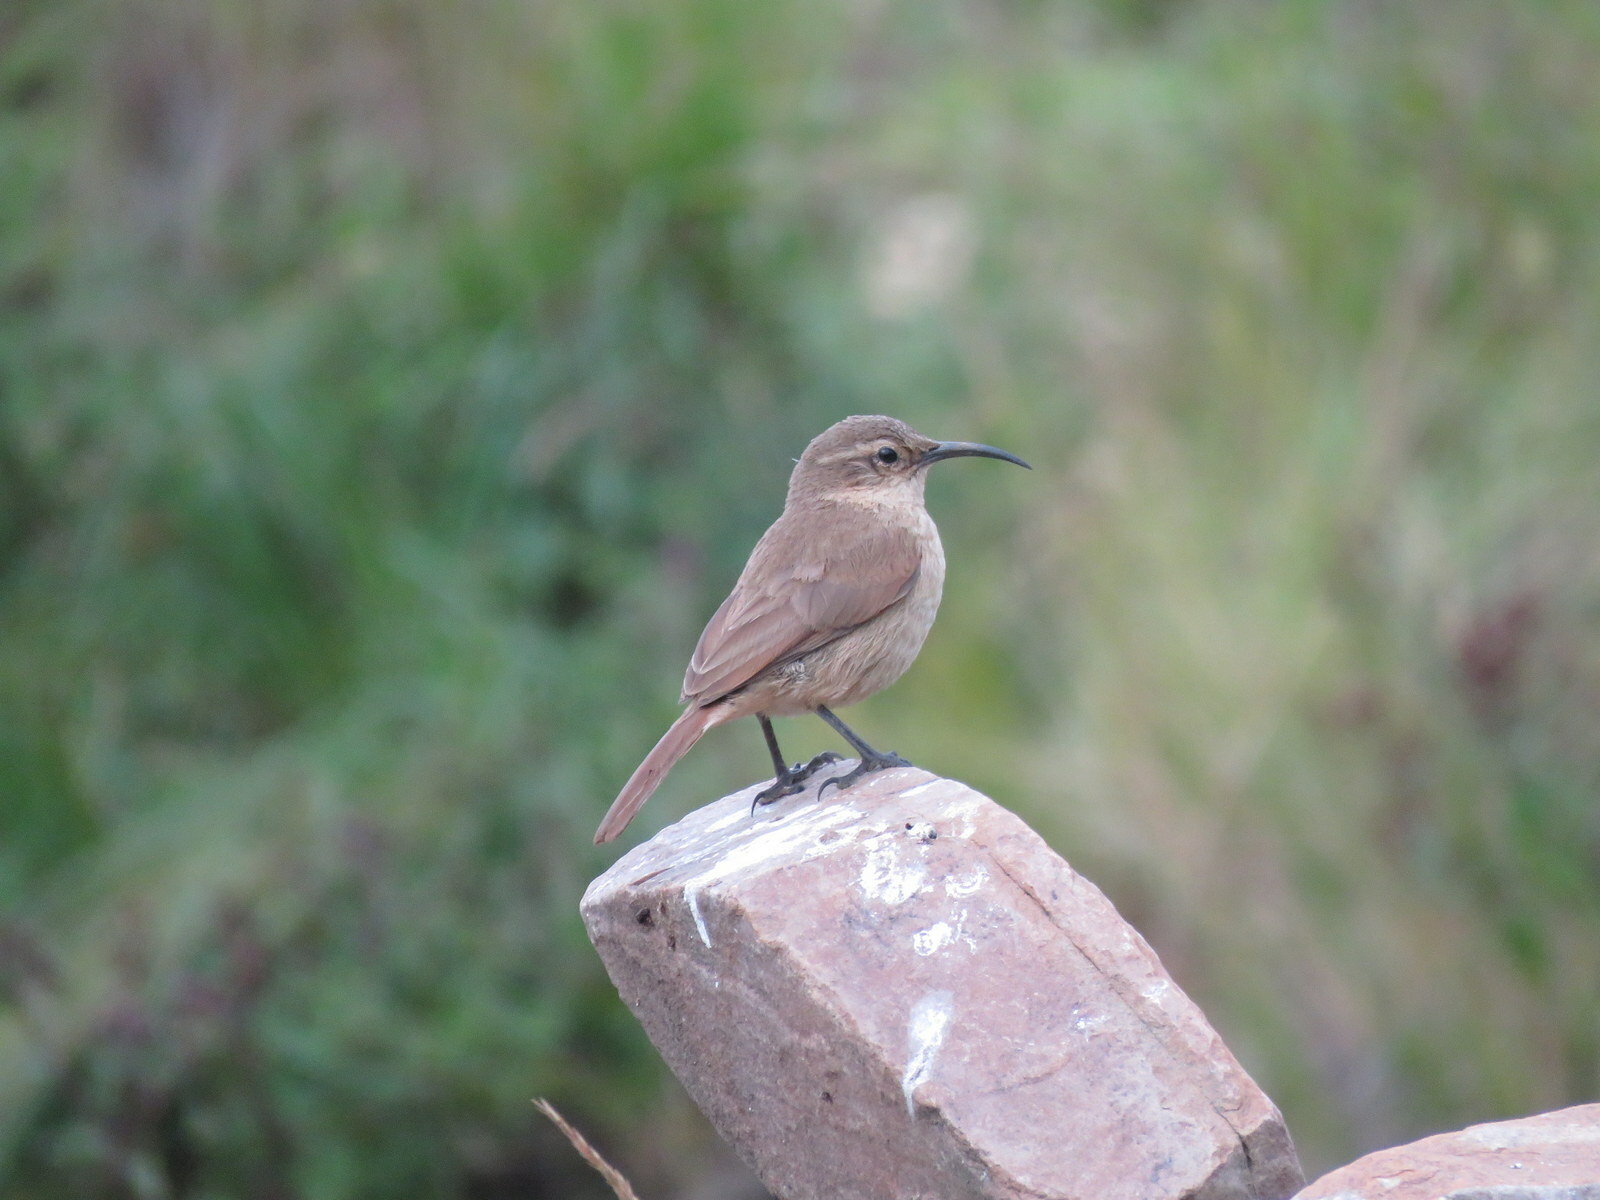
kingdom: Animalia
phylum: Chordata
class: Aves
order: Passeriformes
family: Furnariidae
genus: Upucerthia
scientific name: Upucerthia validirostris
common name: Buff-breasted earthcreeper
